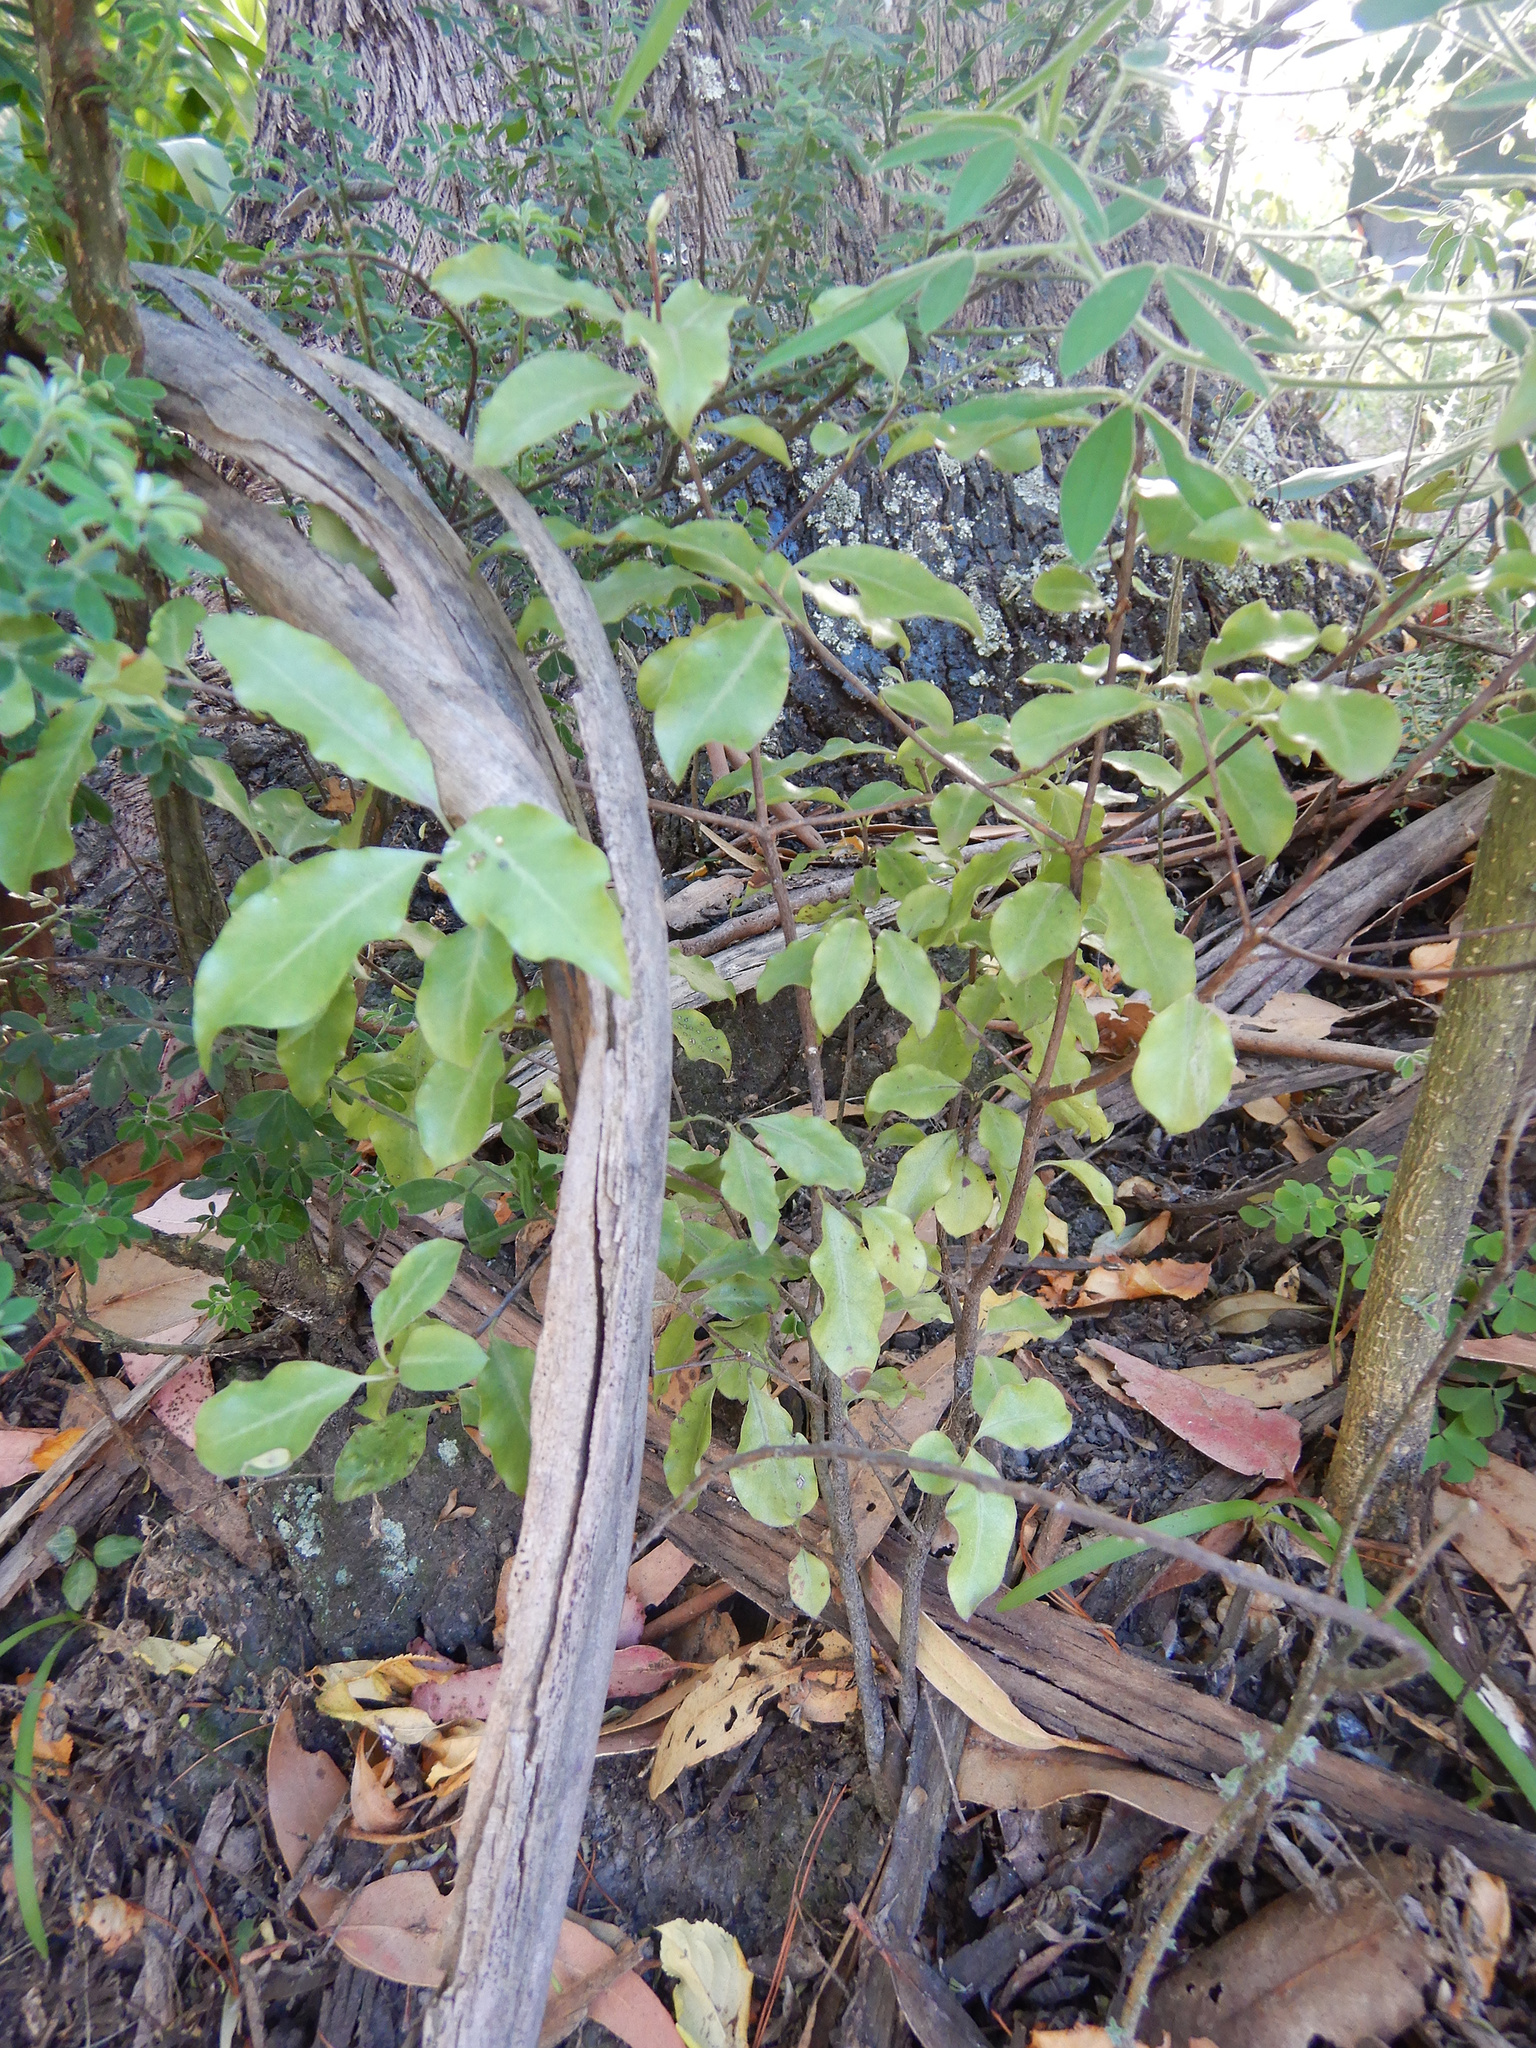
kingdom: Plantae
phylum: Tracheophyta
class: Magnoliopsida
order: Apiales
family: Pittosporaceae
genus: Pittosporum
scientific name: Pittosporum tenuifolium
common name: Kohuhu
